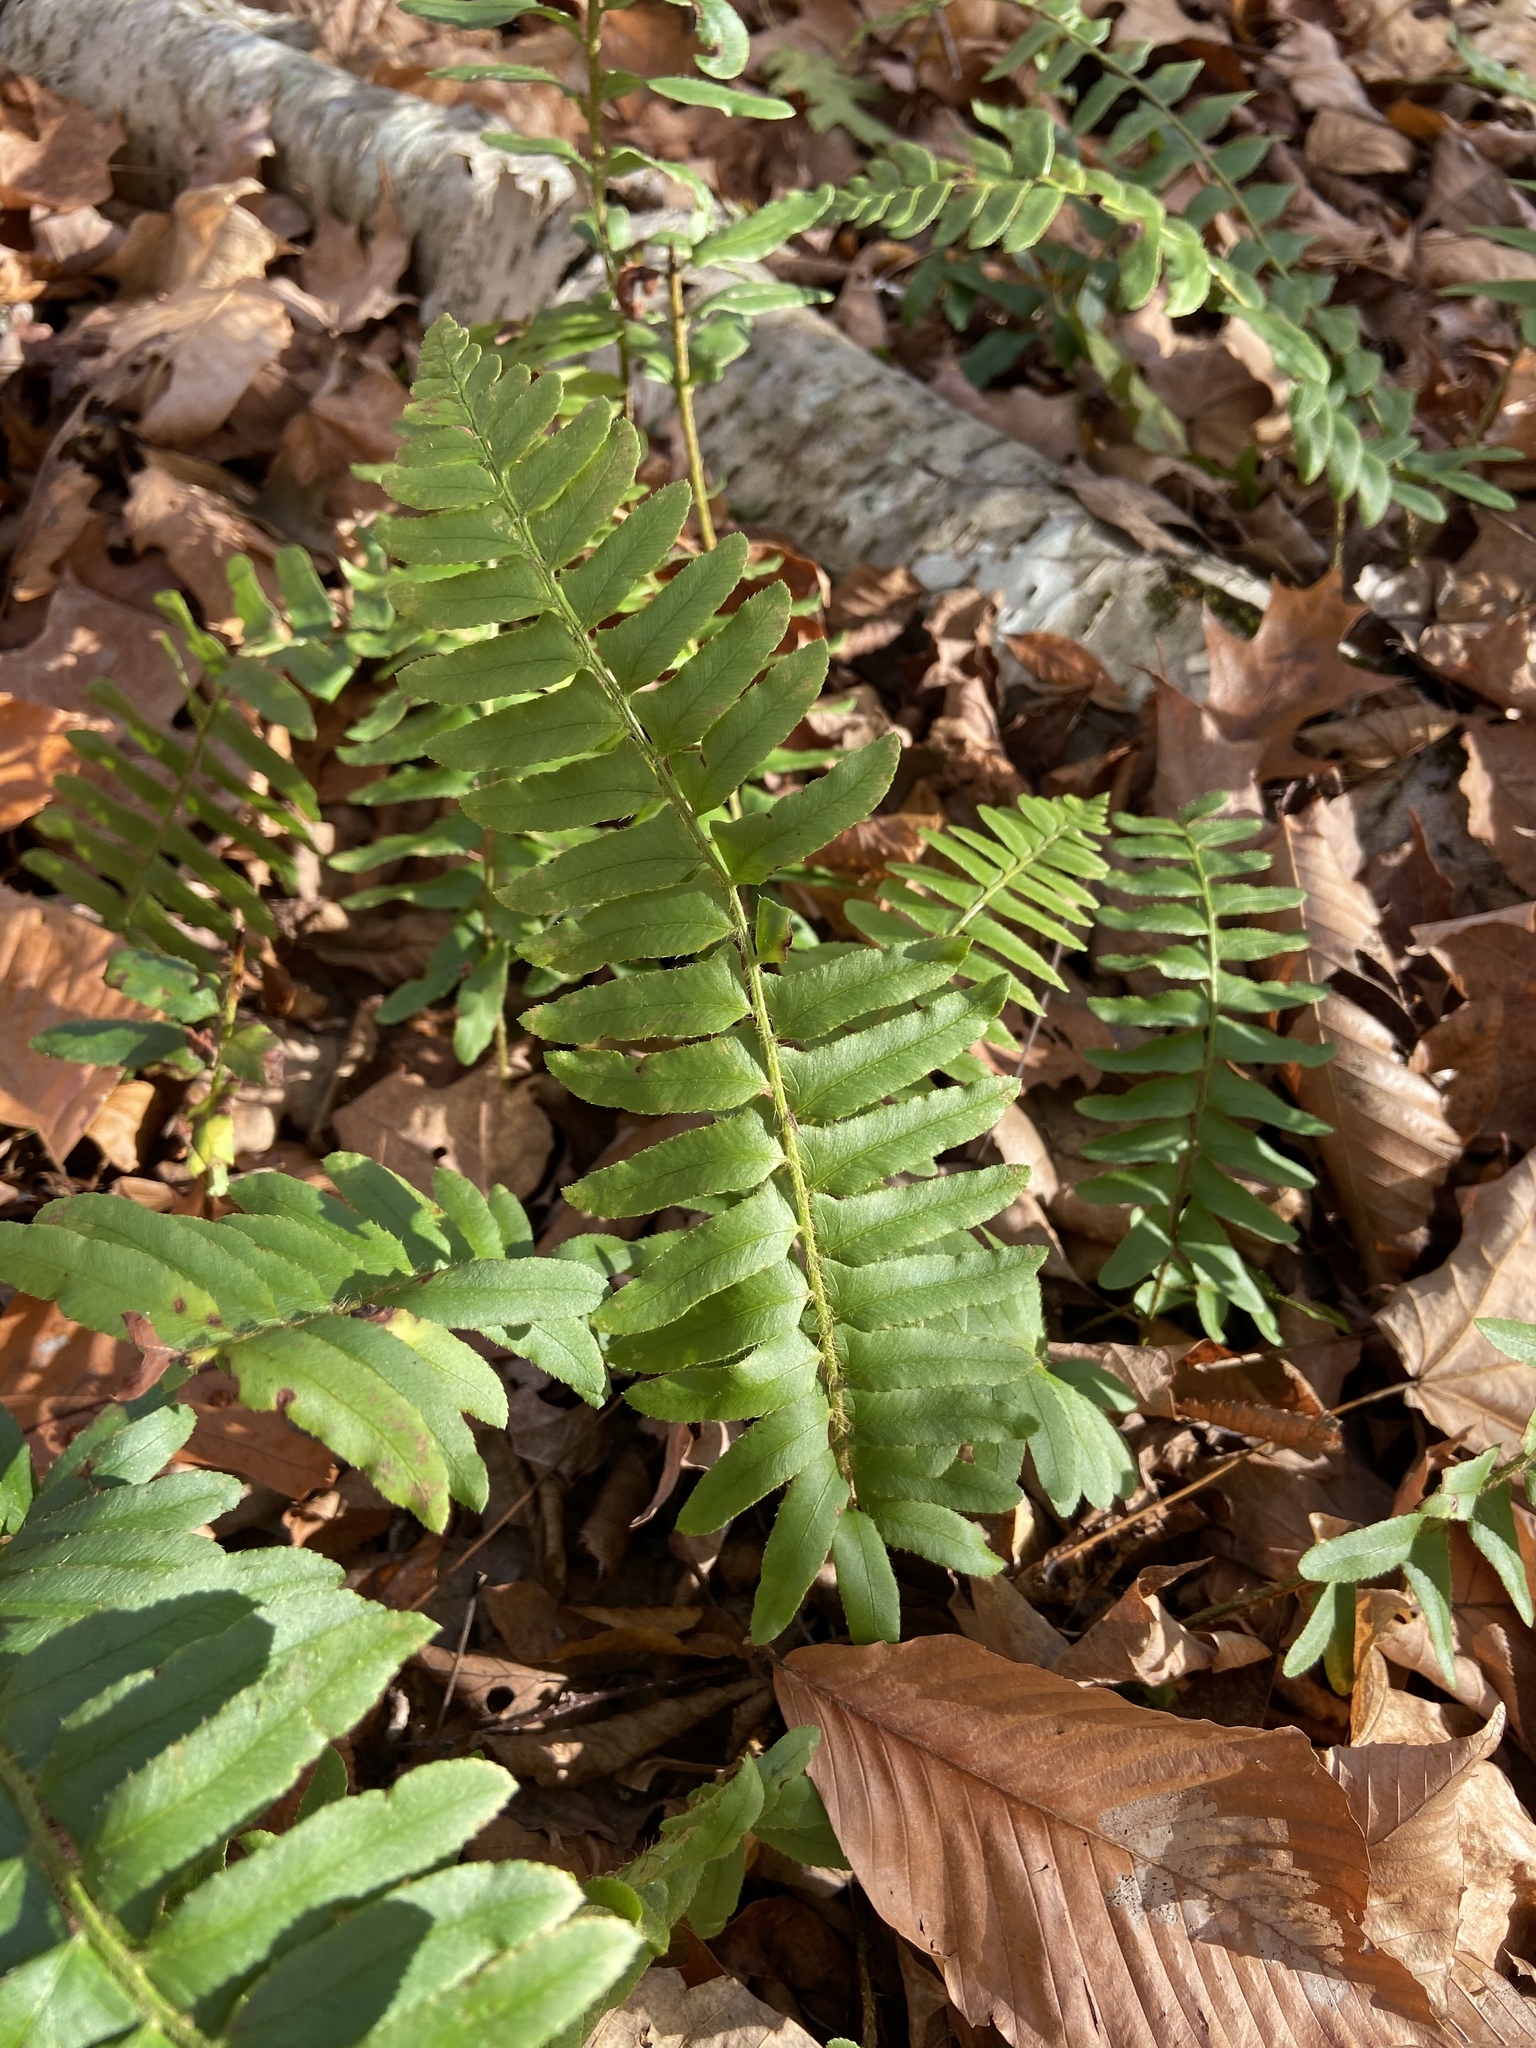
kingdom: Plantae
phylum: Tracheophyta
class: Polypodiopsida
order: Polypodiales
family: Dryopteridaceae
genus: Polystichum
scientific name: Polystichum acrostichoides
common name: Christmas fern
